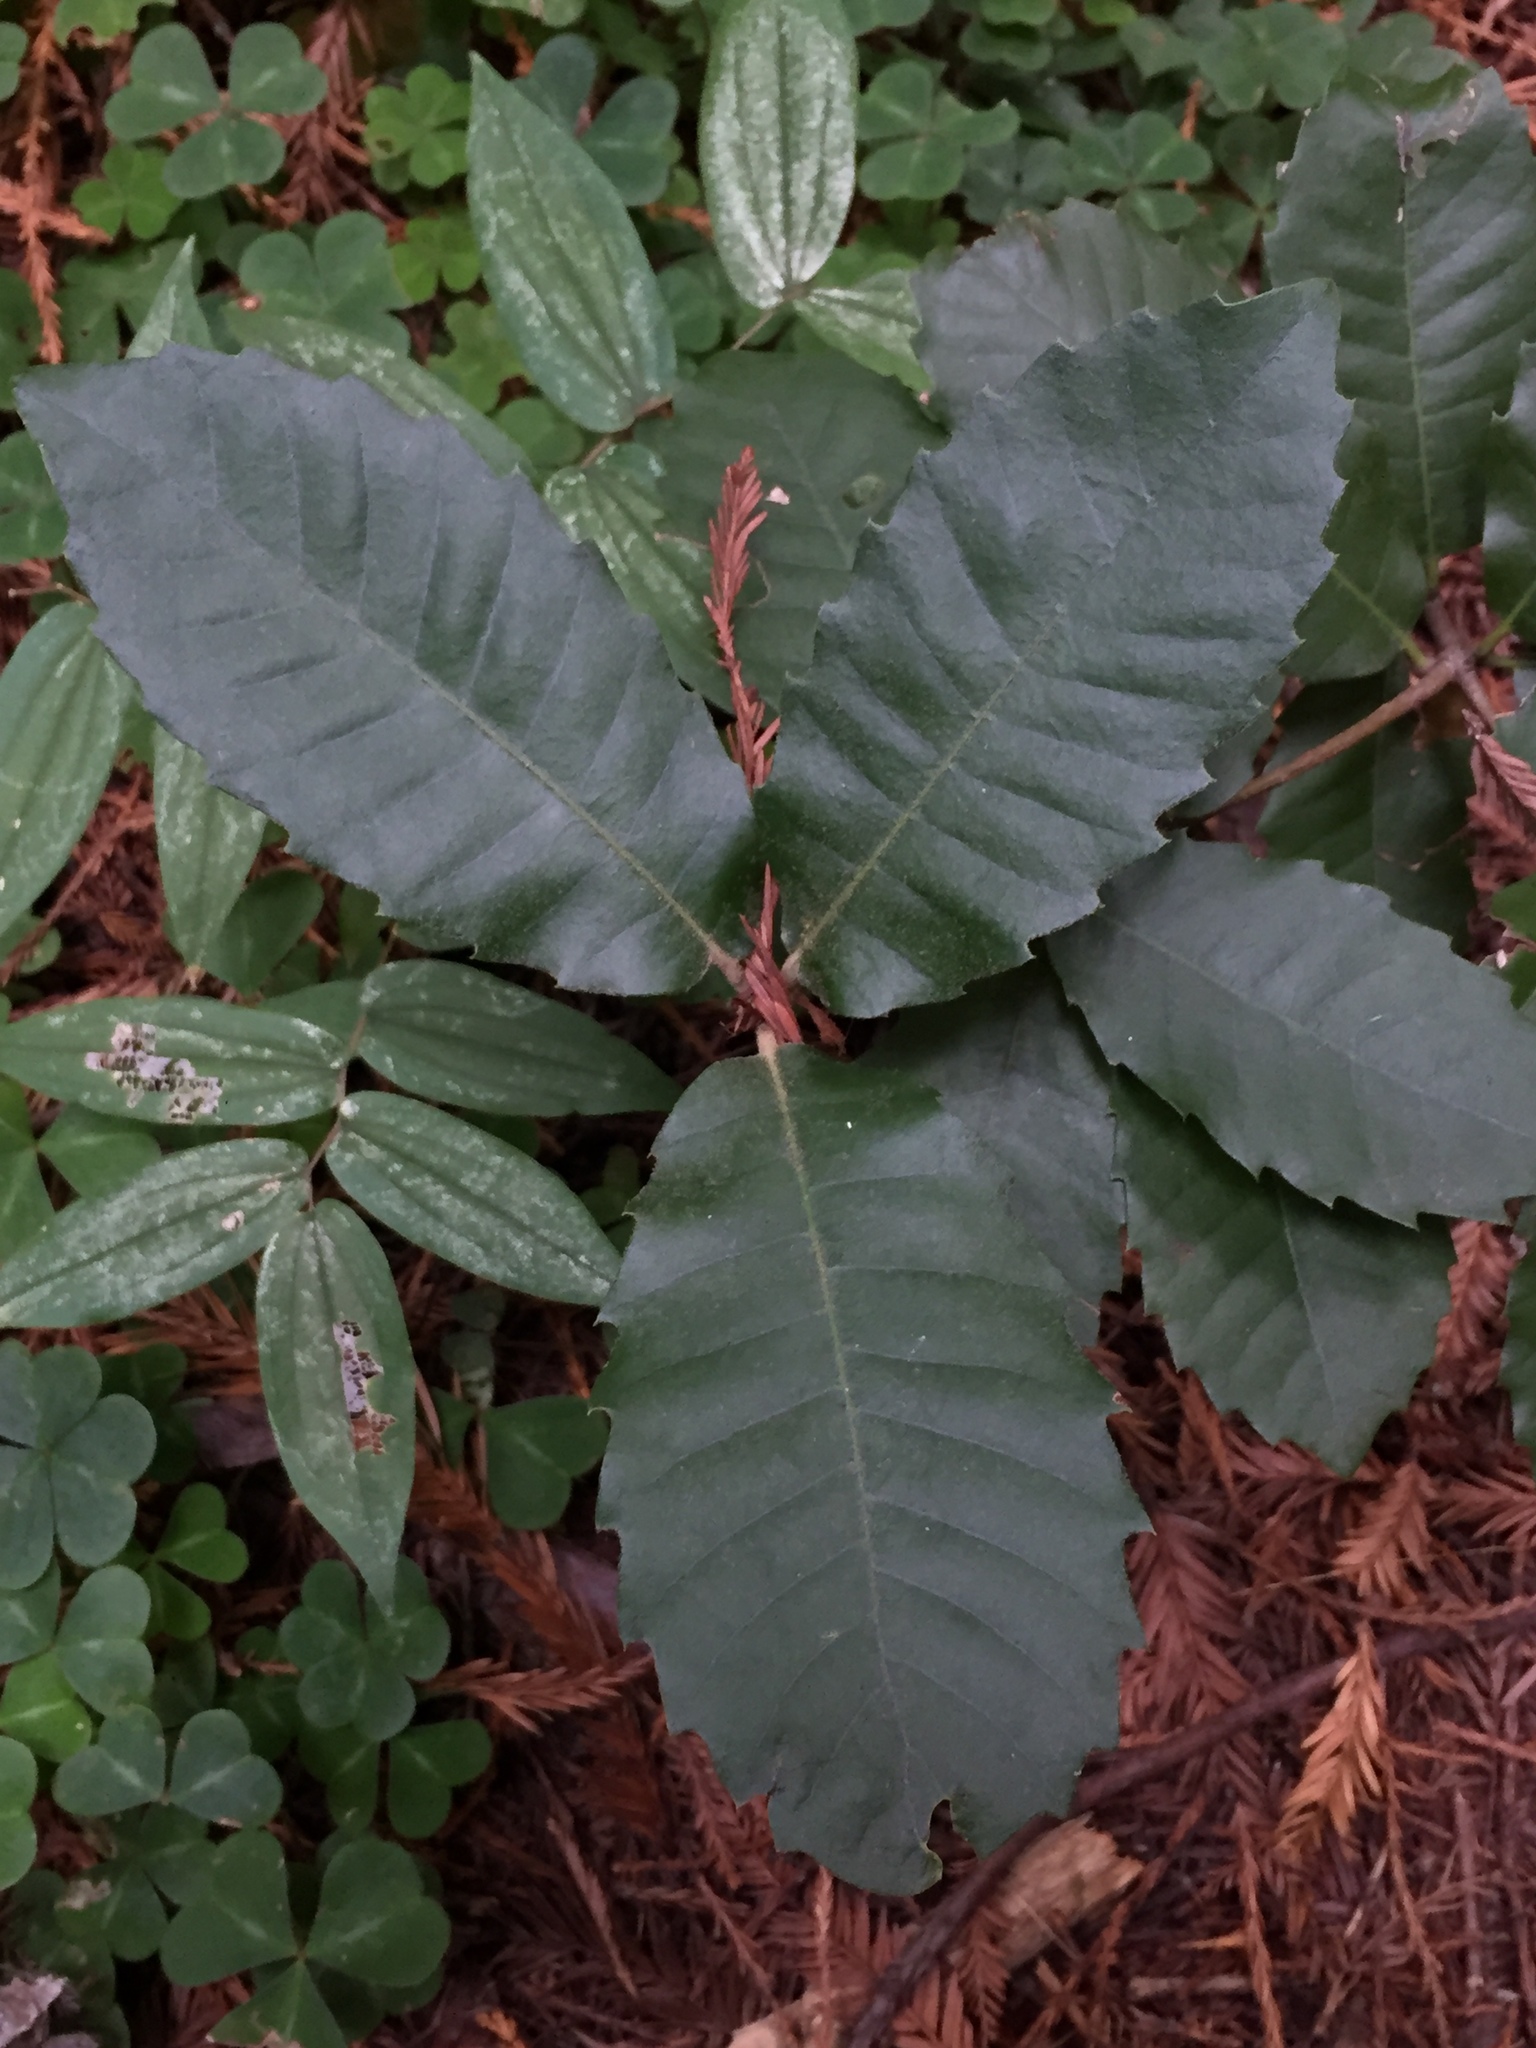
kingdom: Plantae
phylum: Tracheophyta
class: Magnoliopsida
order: Fagales
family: Fagaceae
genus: Notholithocarpus
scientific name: Notholithocarpus densiflorus
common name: Tan bark oak
